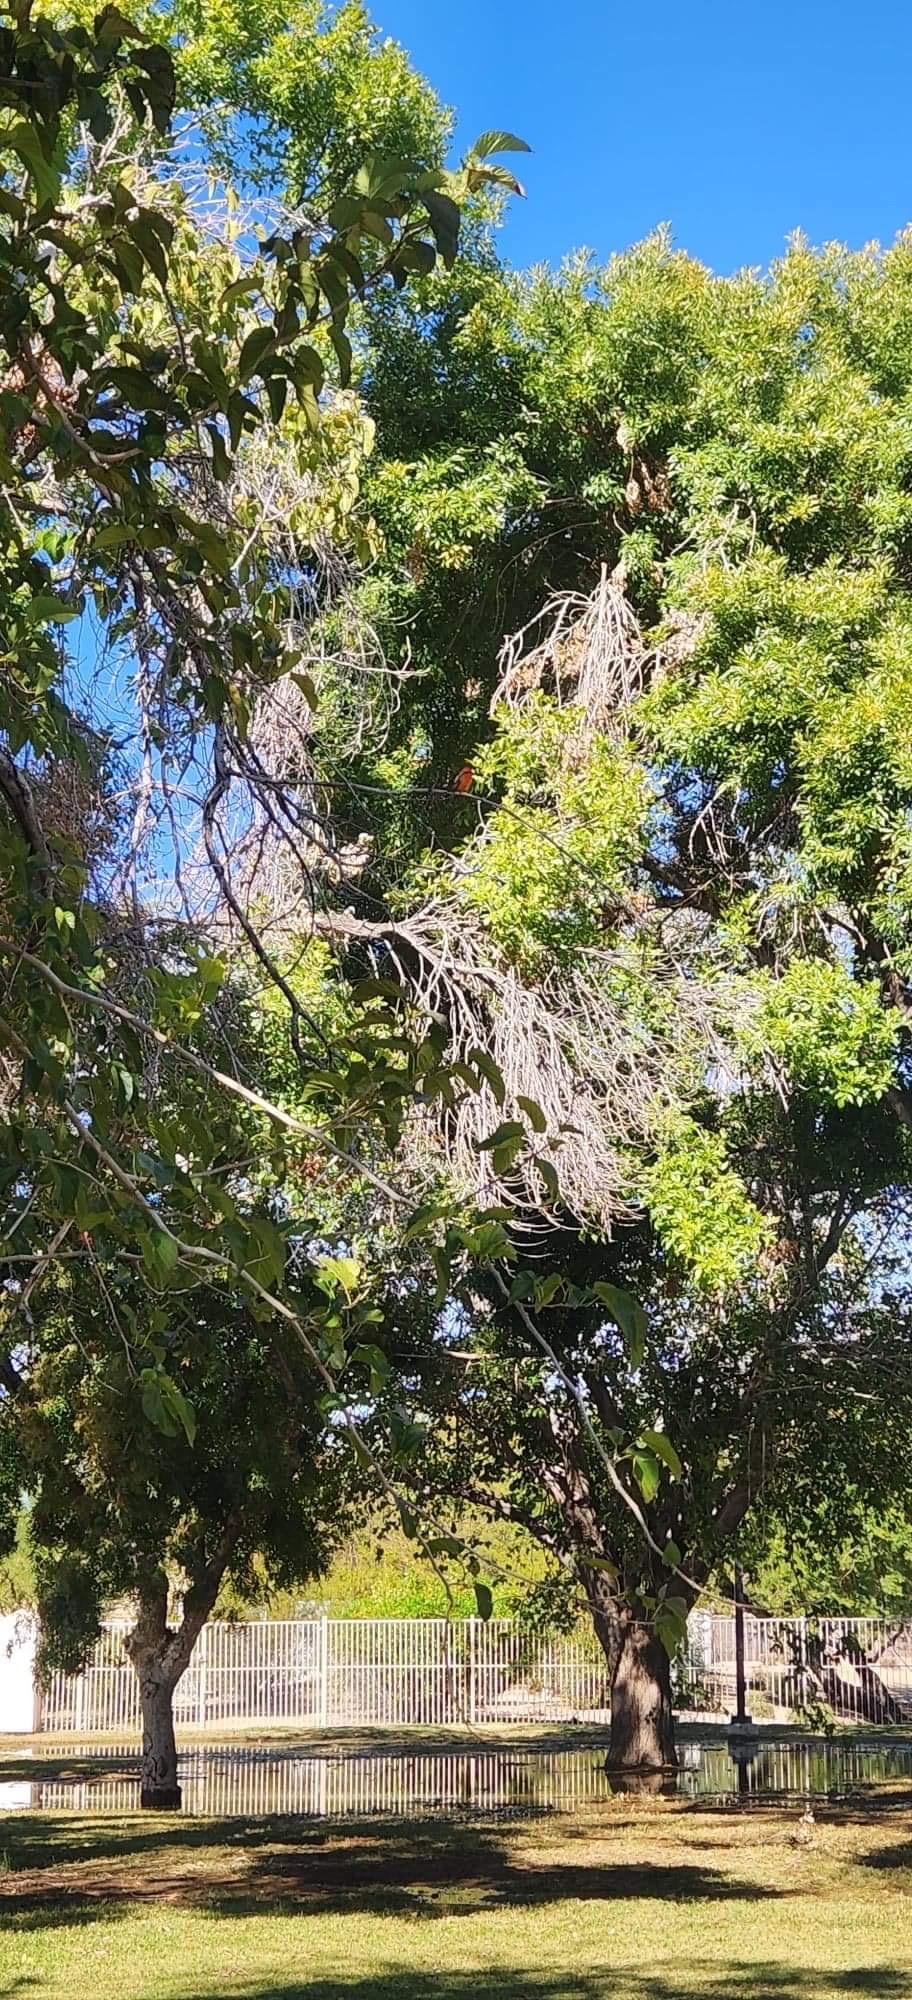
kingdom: Animalia
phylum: Chordata
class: Aves
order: Passeriformes
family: Tyrannidae
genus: Pyrocephalus
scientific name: Pyrocephalus rubinus
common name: Vermilion flycatcher
